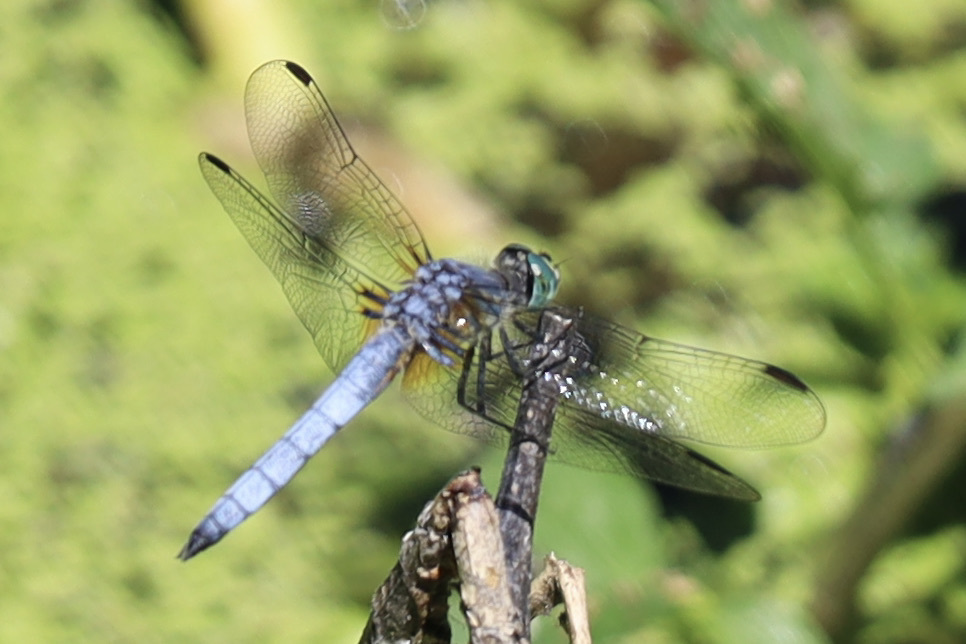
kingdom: Animalia
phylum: Arthropoda
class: Insecta
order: Odonata
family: Libellulidae
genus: Pachydiplax
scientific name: Pachydiplax longipennis
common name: Blue dasher
